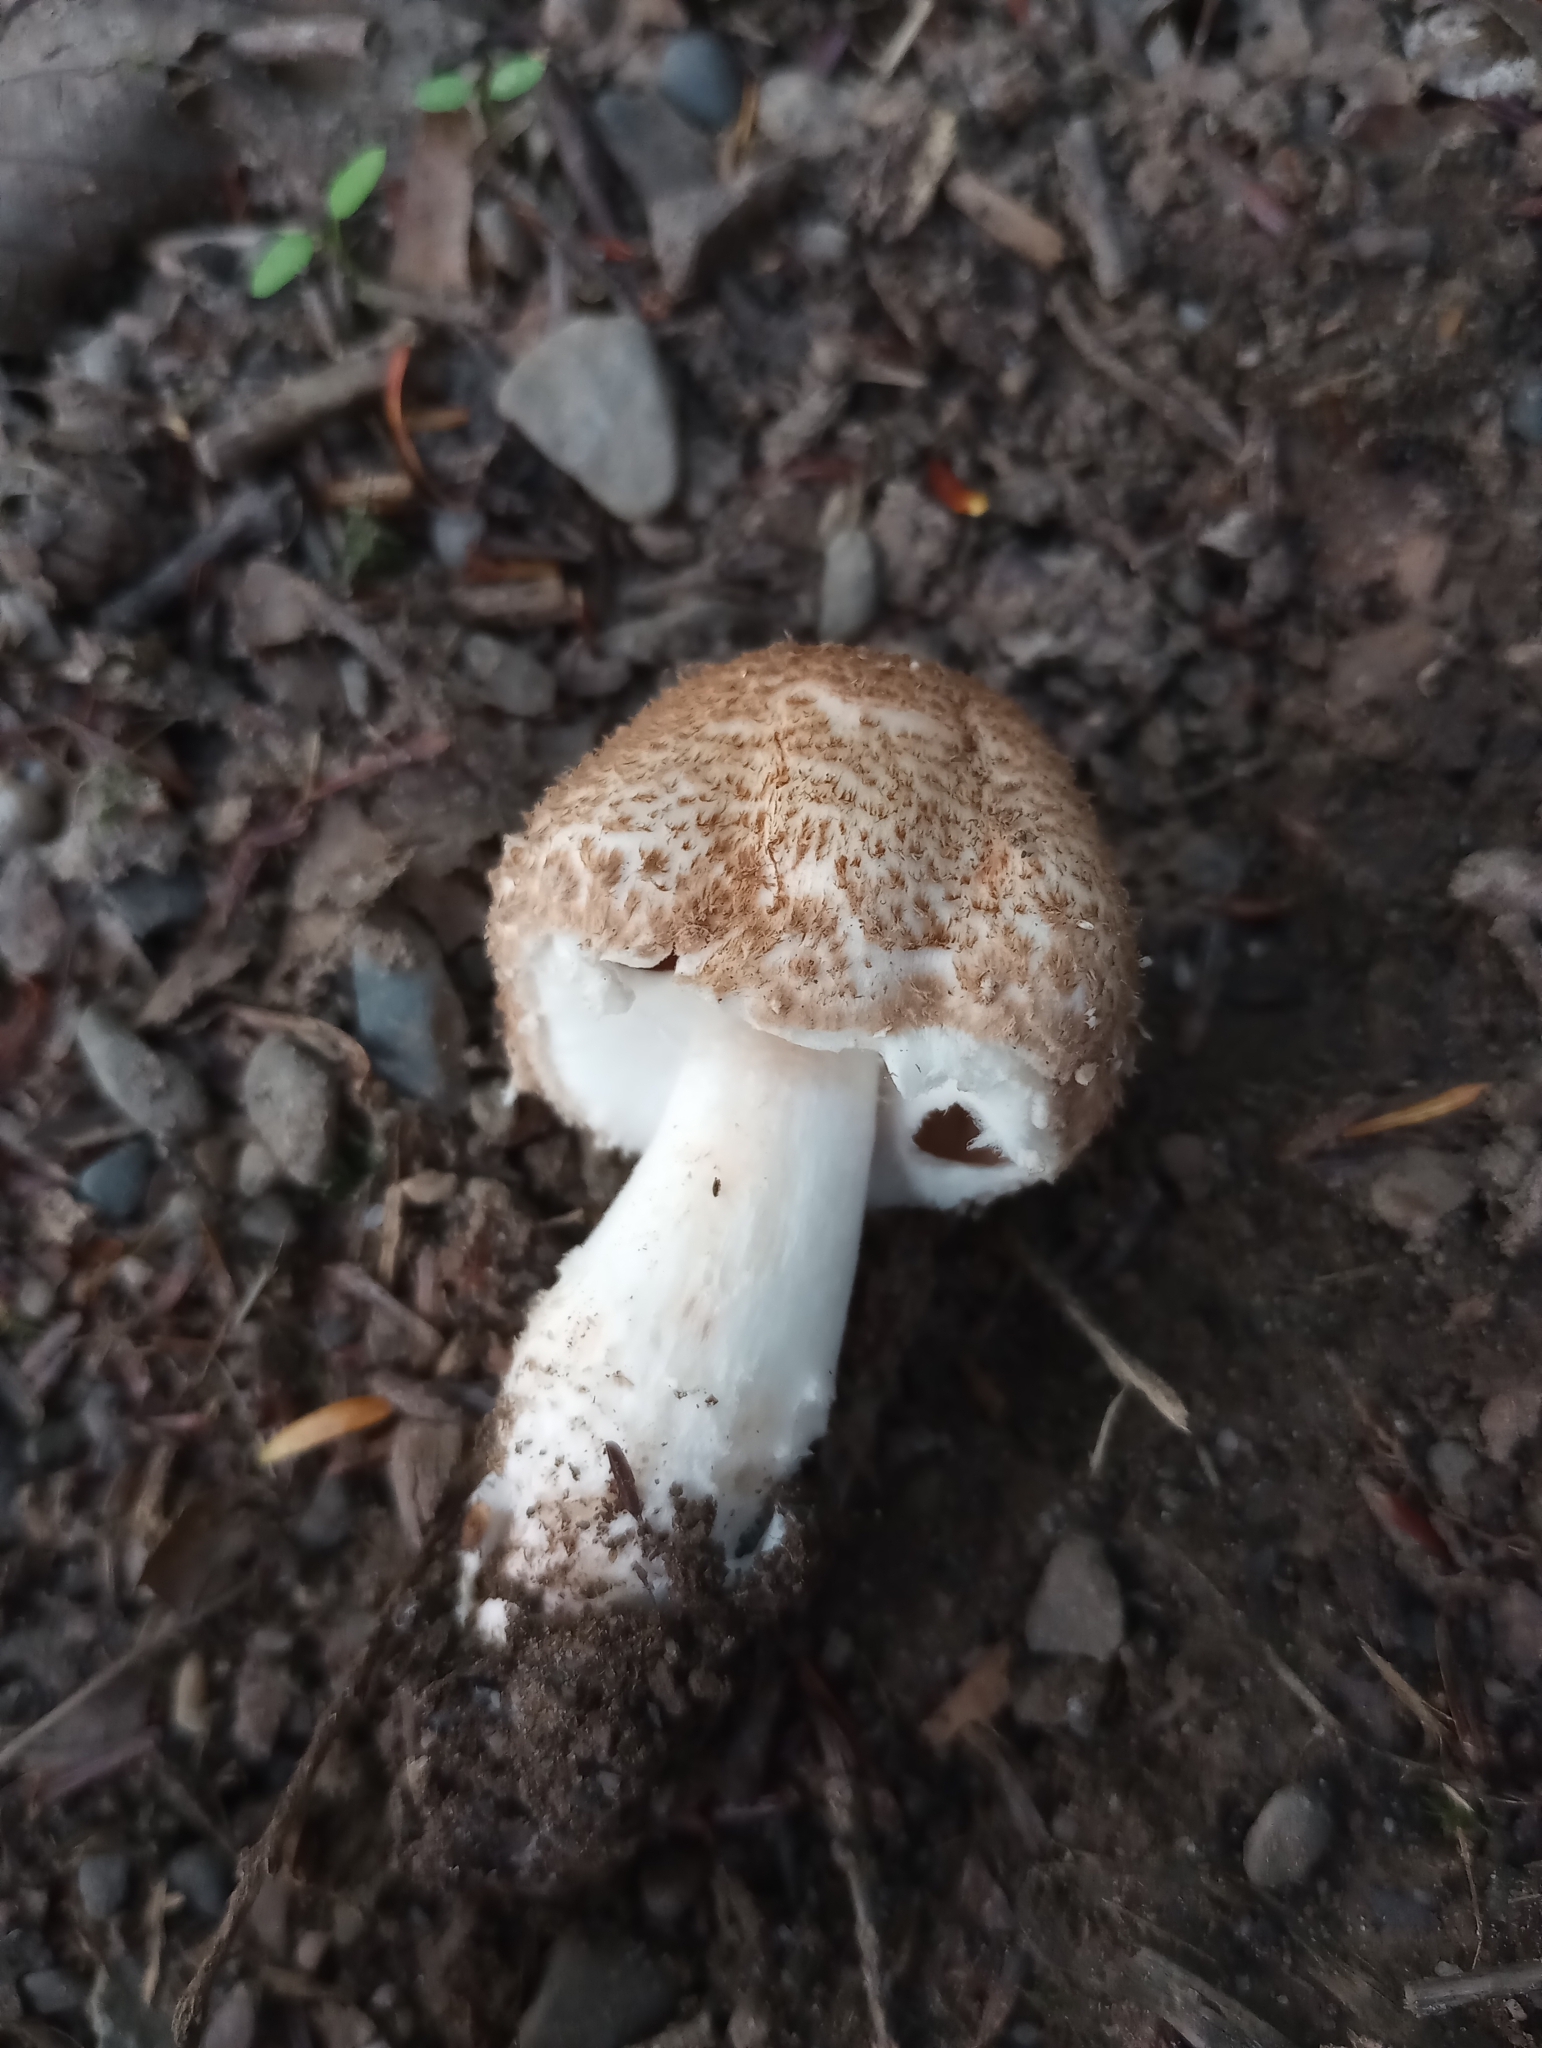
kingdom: Fungi
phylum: Basidiomycota
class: Agaricomycetes
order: Agaricales
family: Agaricaceae
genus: Agaricus
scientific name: Agaricus benesii
